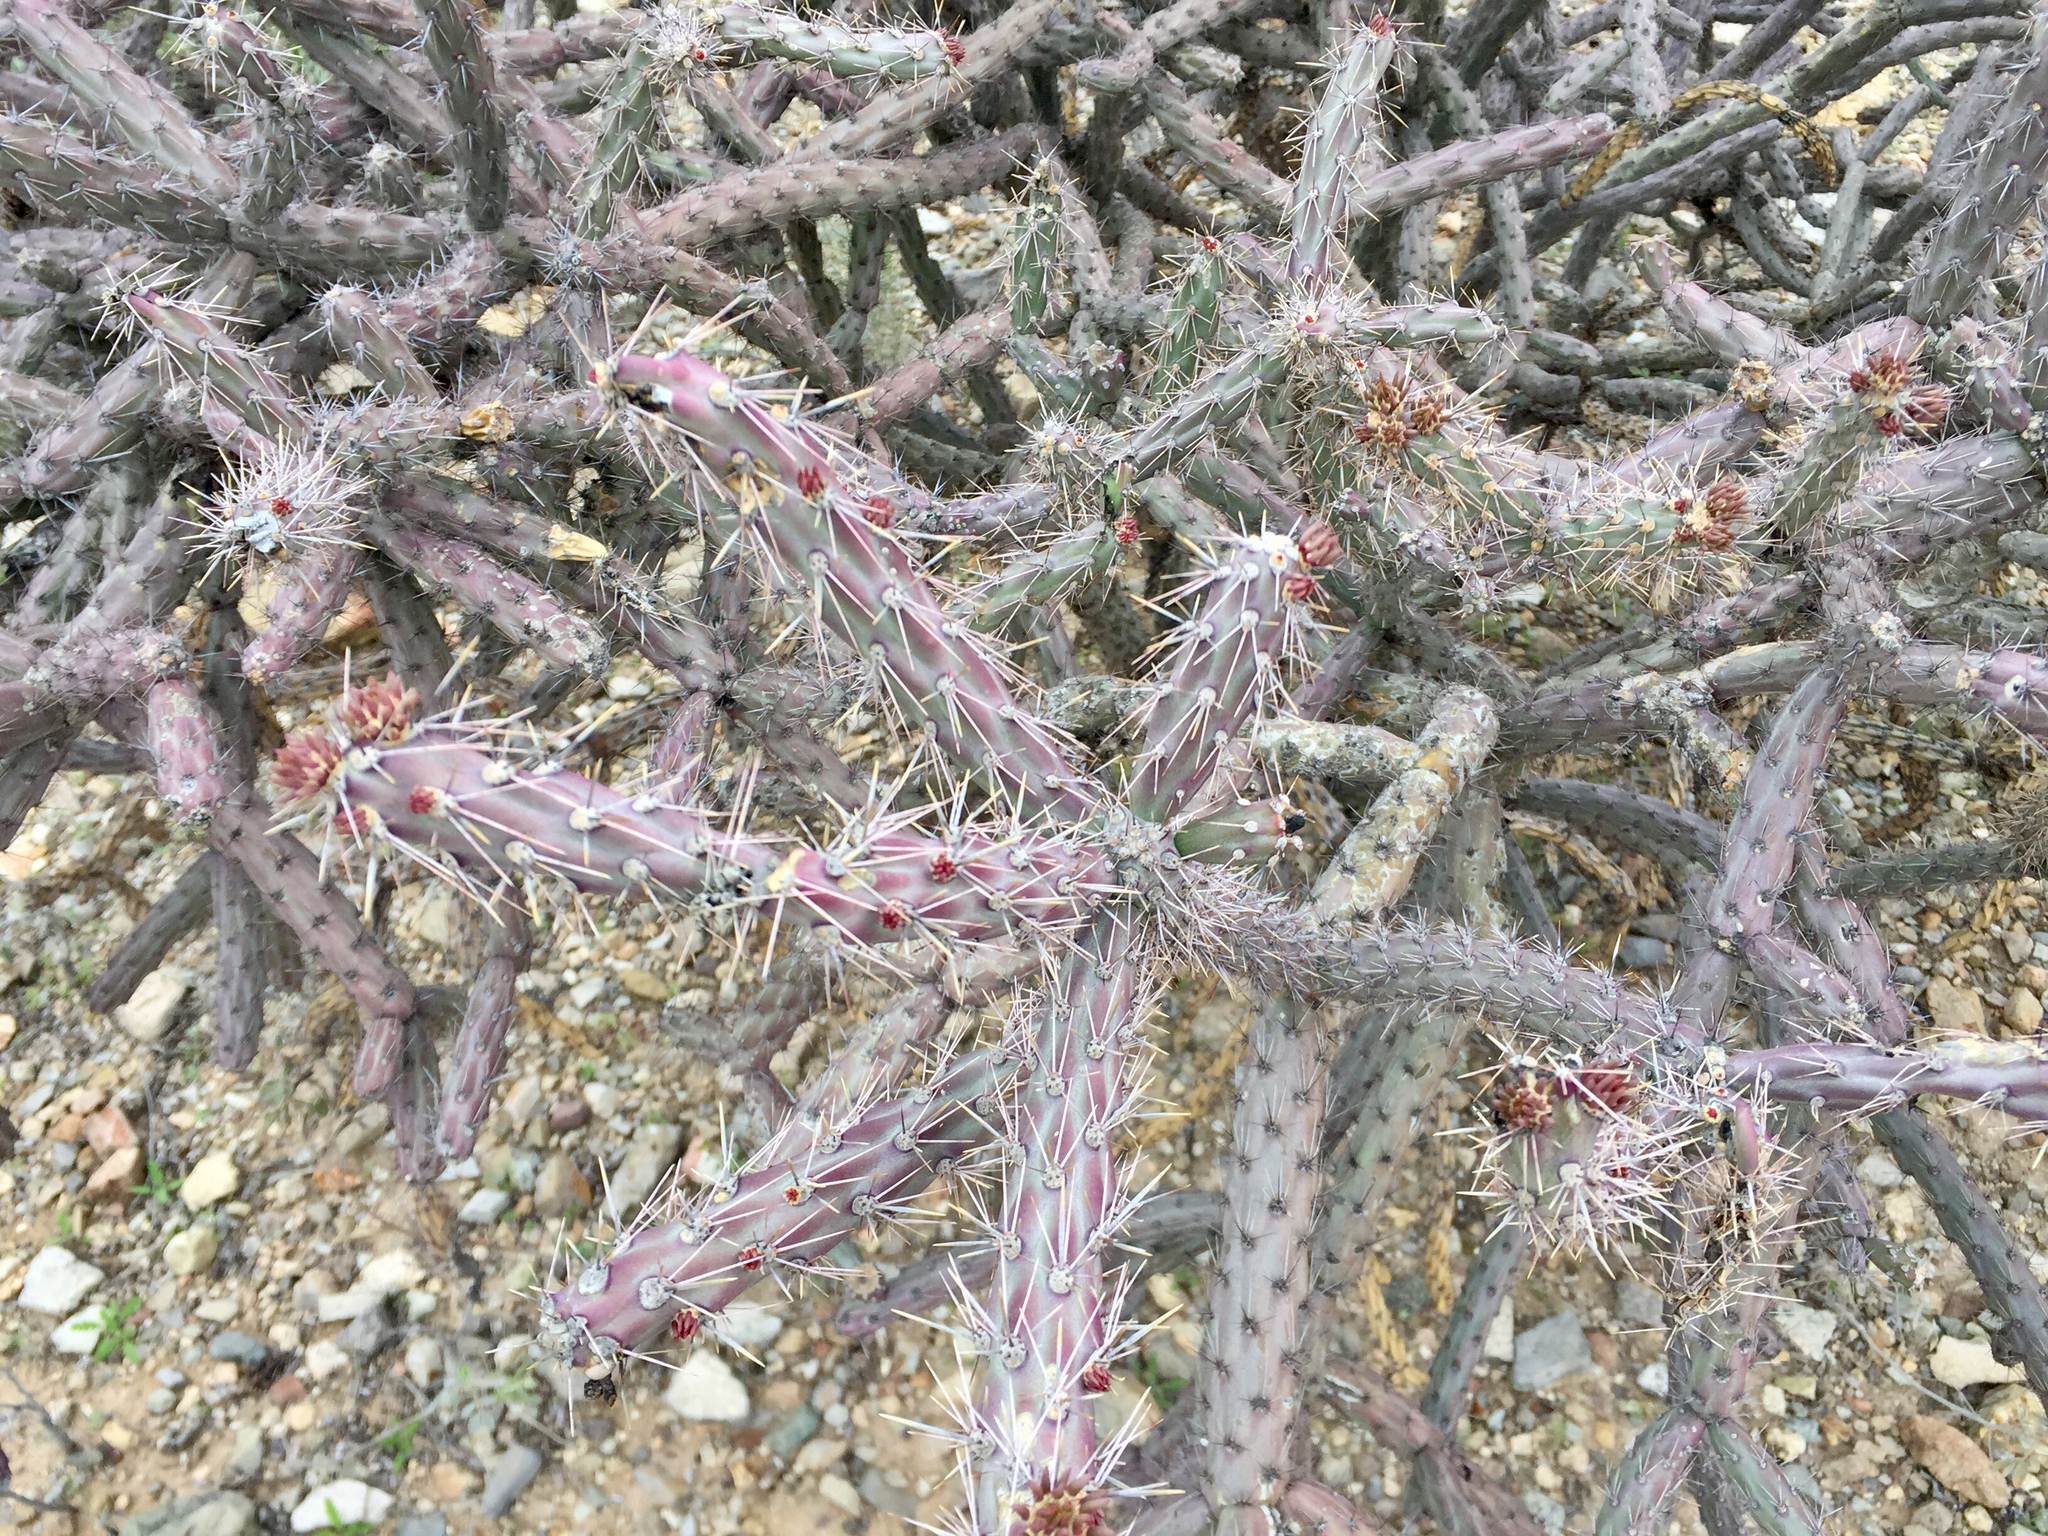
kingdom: Plantae
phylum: Tracheophyta
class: Magnoliopsida
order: Caryophyllales
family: Cactaceae
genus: Cylindropuntia
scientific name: Cylindropuntia thurberi
